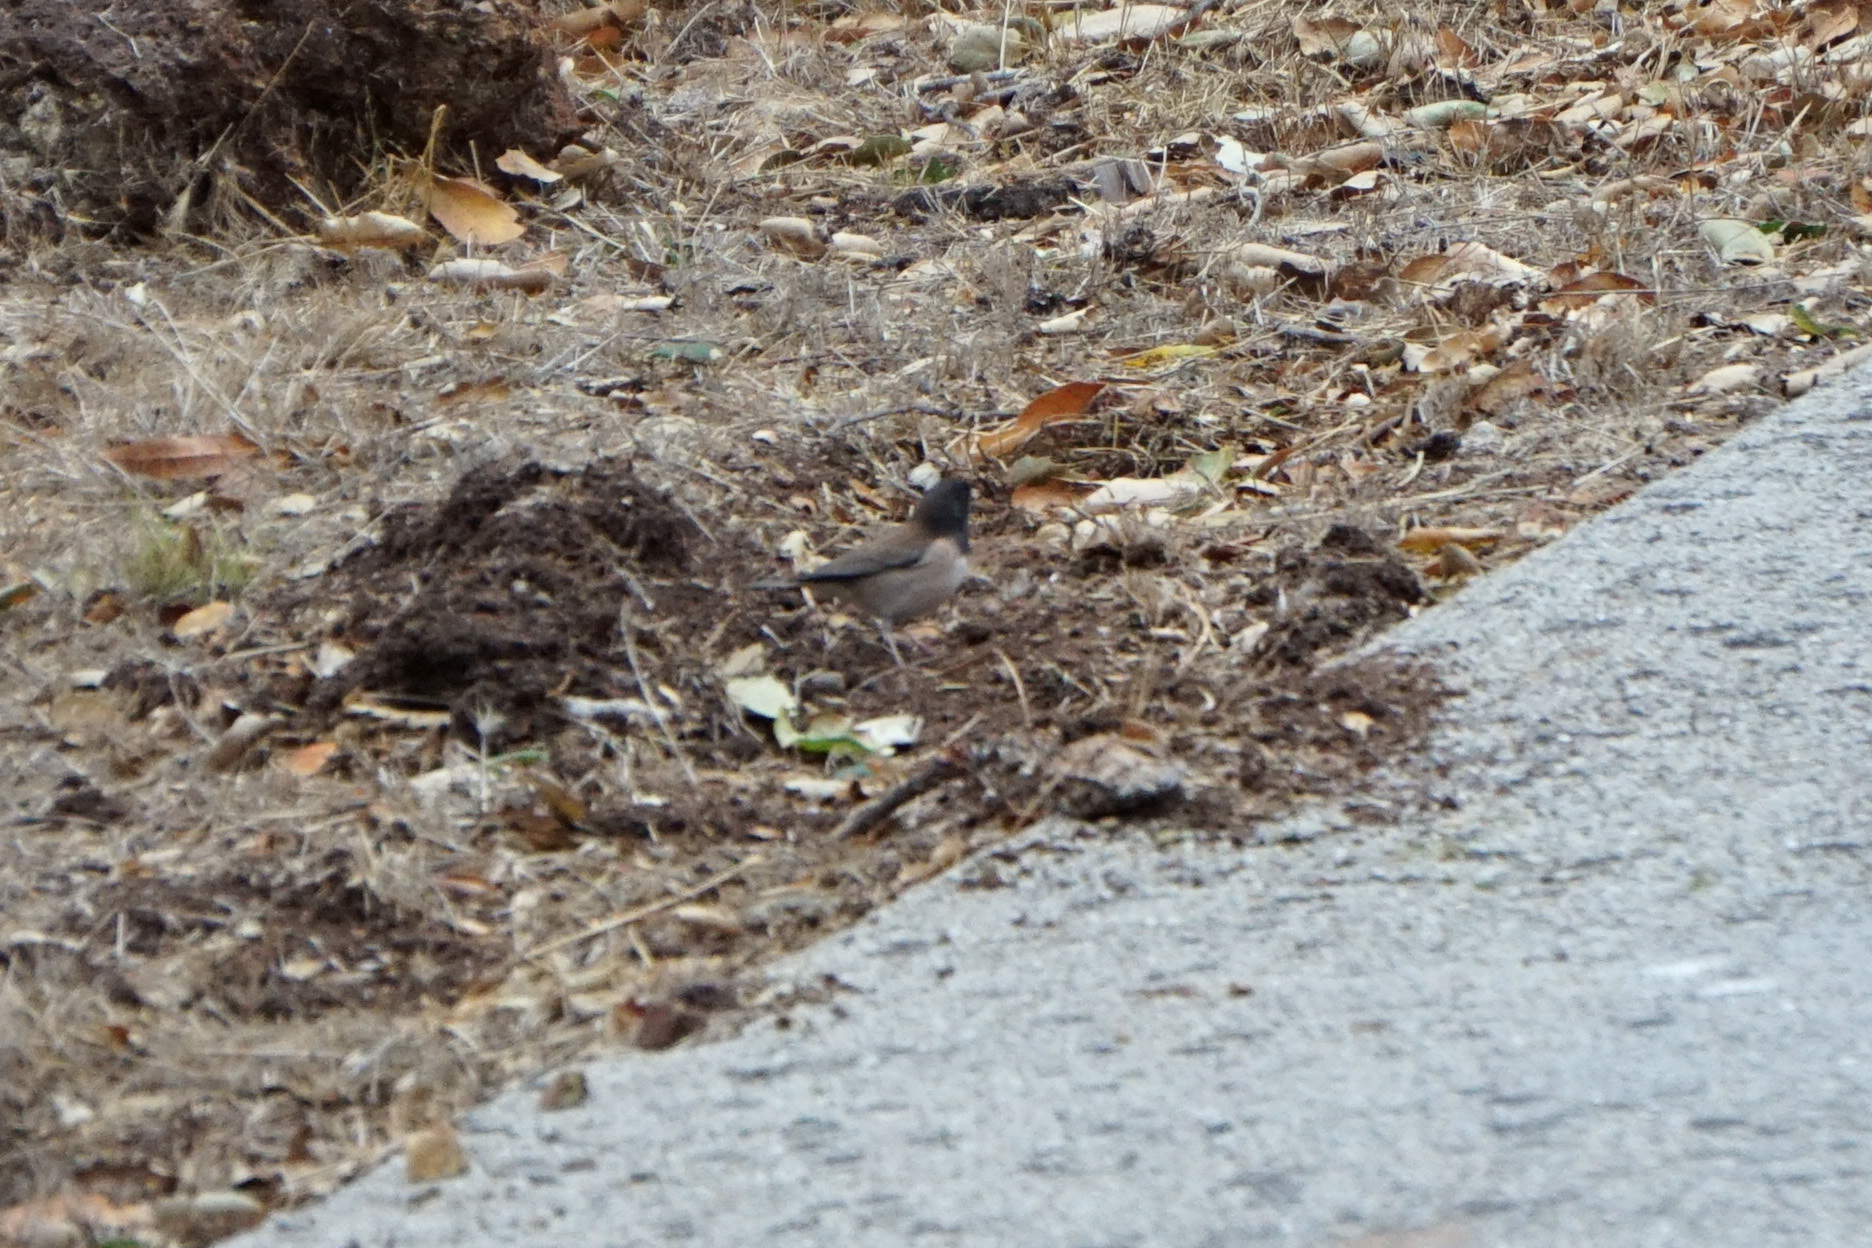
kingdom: Animalia
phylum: Chordata
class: Aves
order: Passeriformes
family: Passerellidae
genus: Junco
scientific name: Junco hyemalis
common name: Dark-eyed junco
